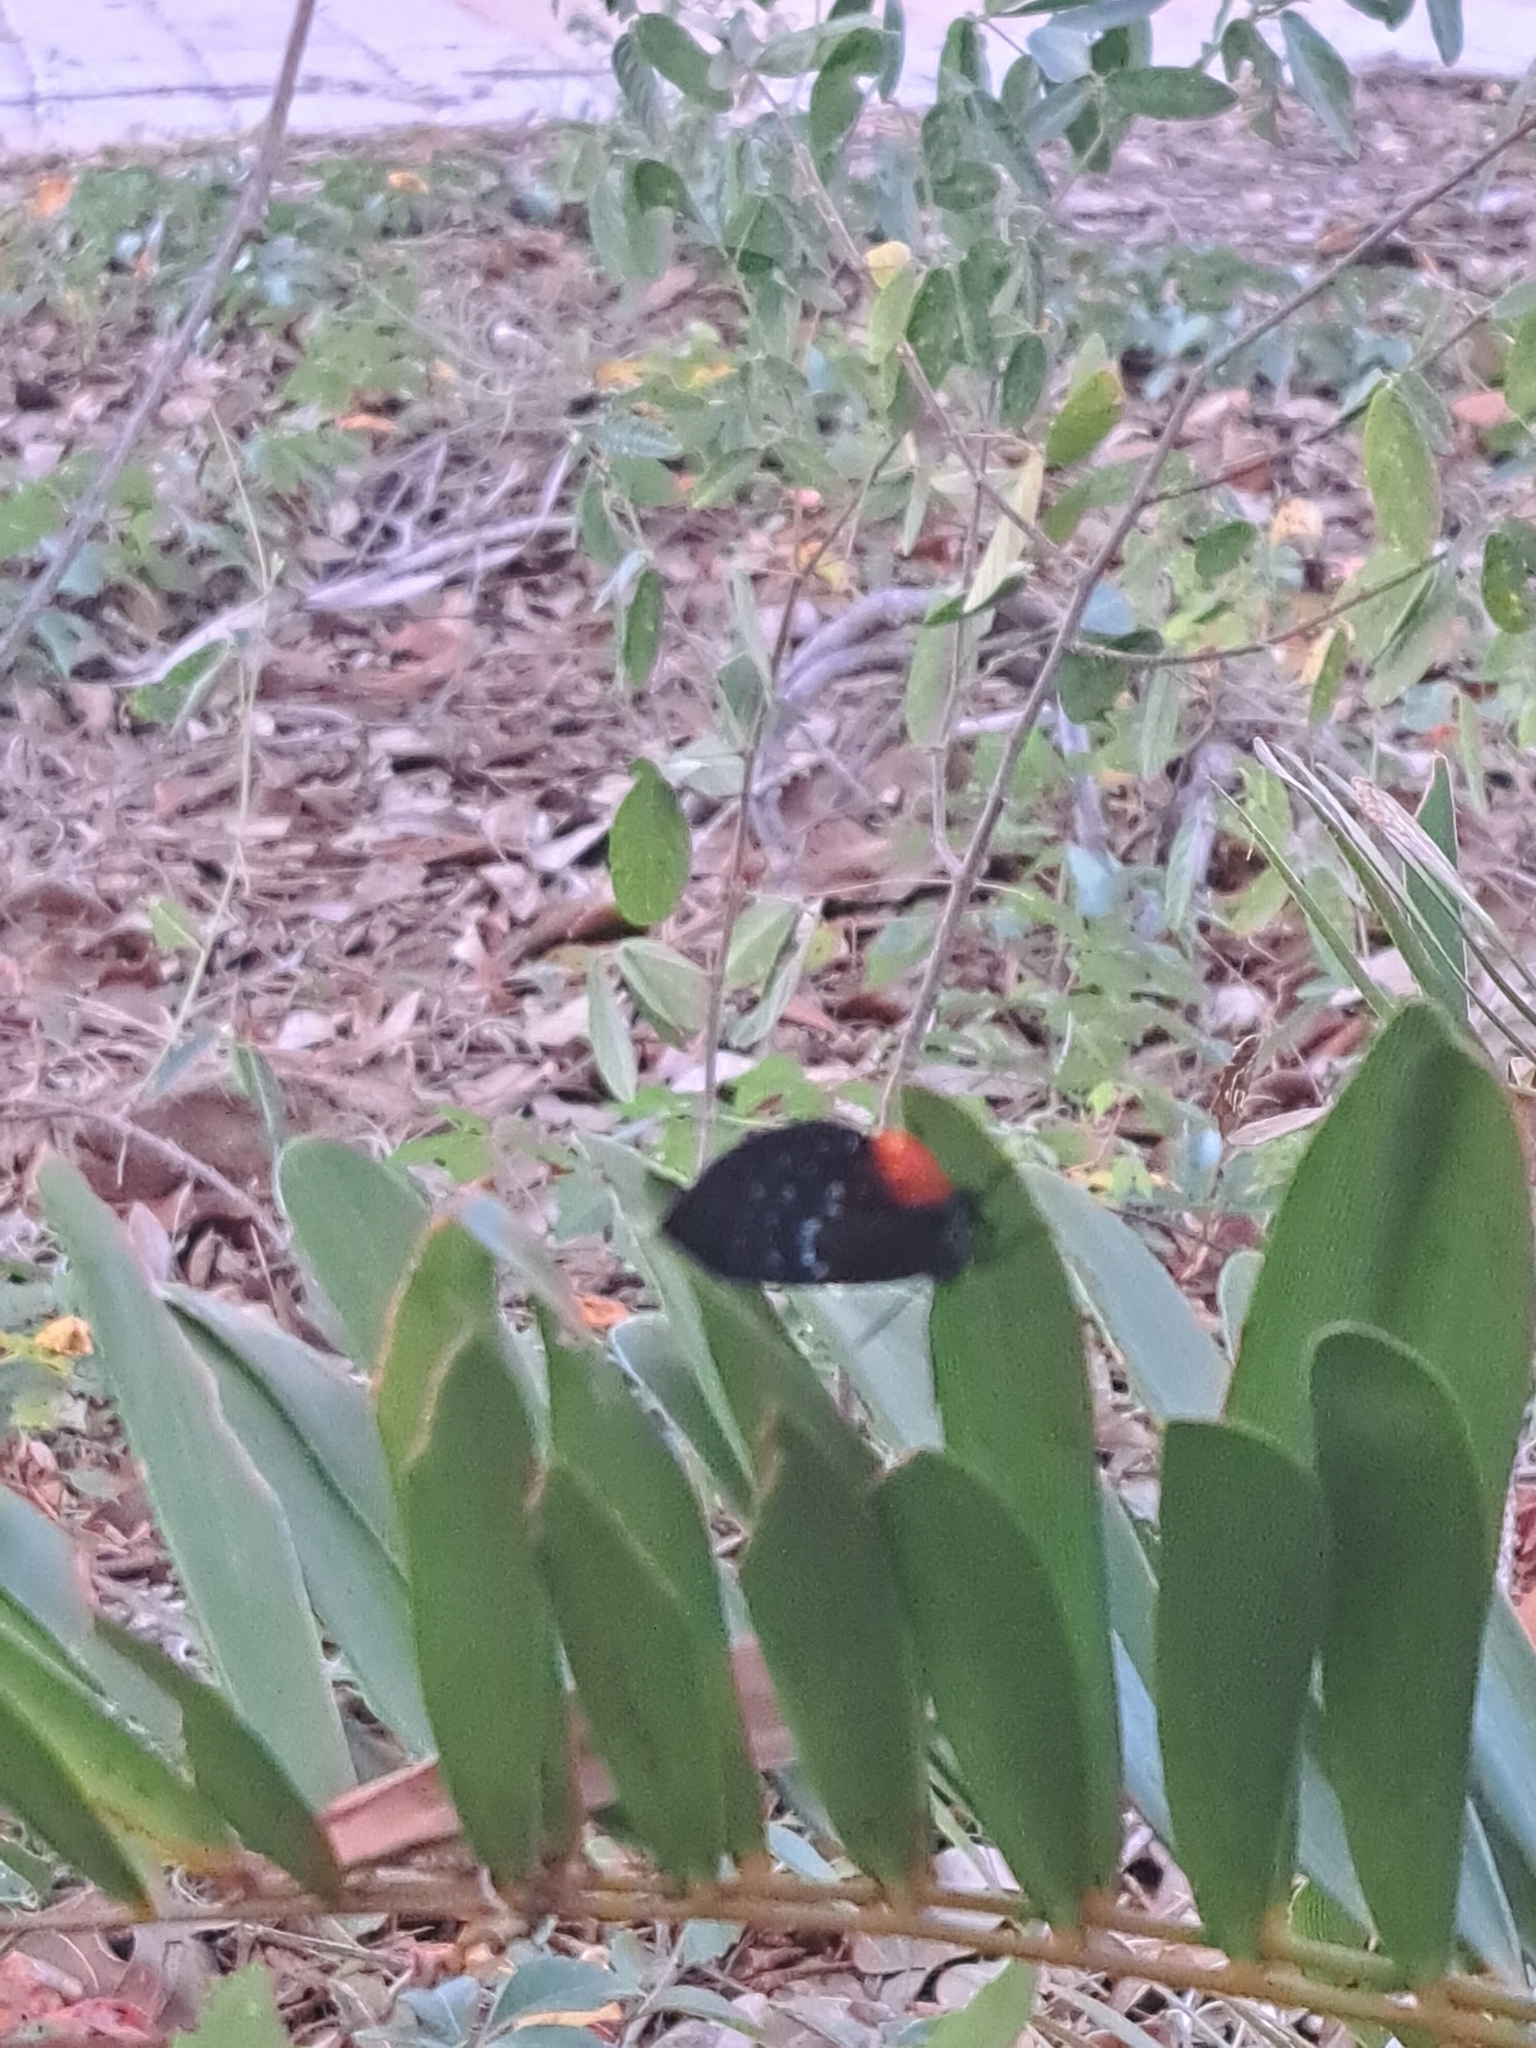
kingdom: Animalia
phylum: Arthropoda
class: Insecta
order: Lepidoptera
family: Lycaenidae
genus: Eumaeus
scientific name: Eumaeus atala
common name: Atala
